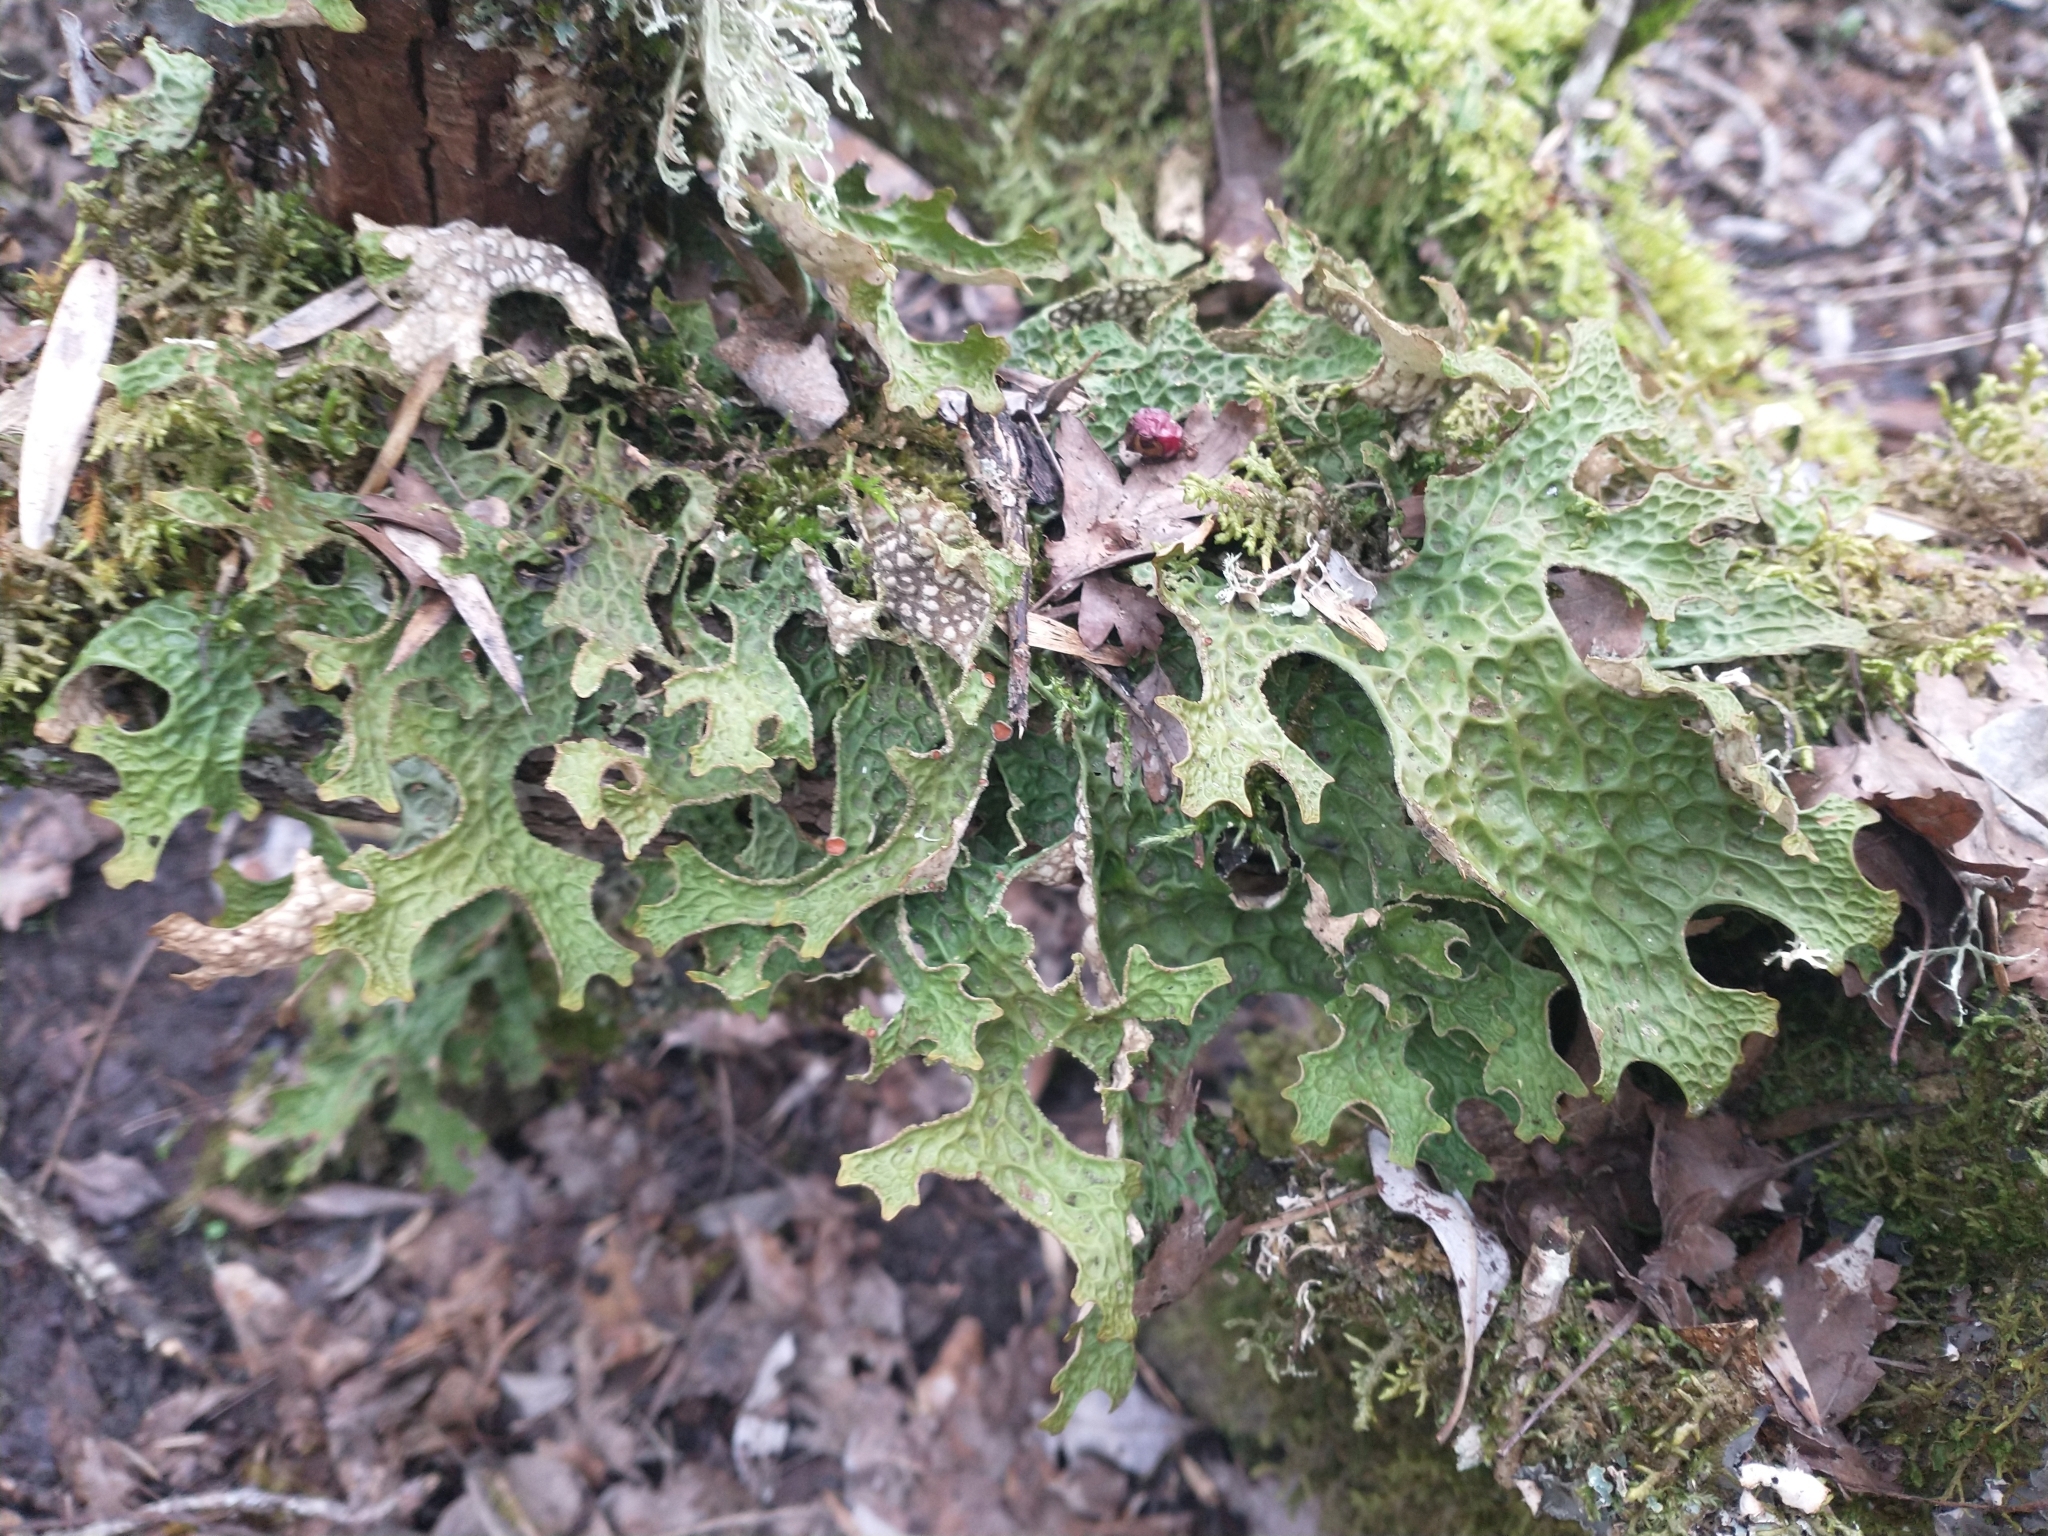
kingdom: Fungi
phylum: Ascomycota
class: Lecanoromycetes
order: Peltigerales
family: Lobariaceae
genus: Lobaria
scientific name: Lobaria pulmonaria
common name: Lungwort
